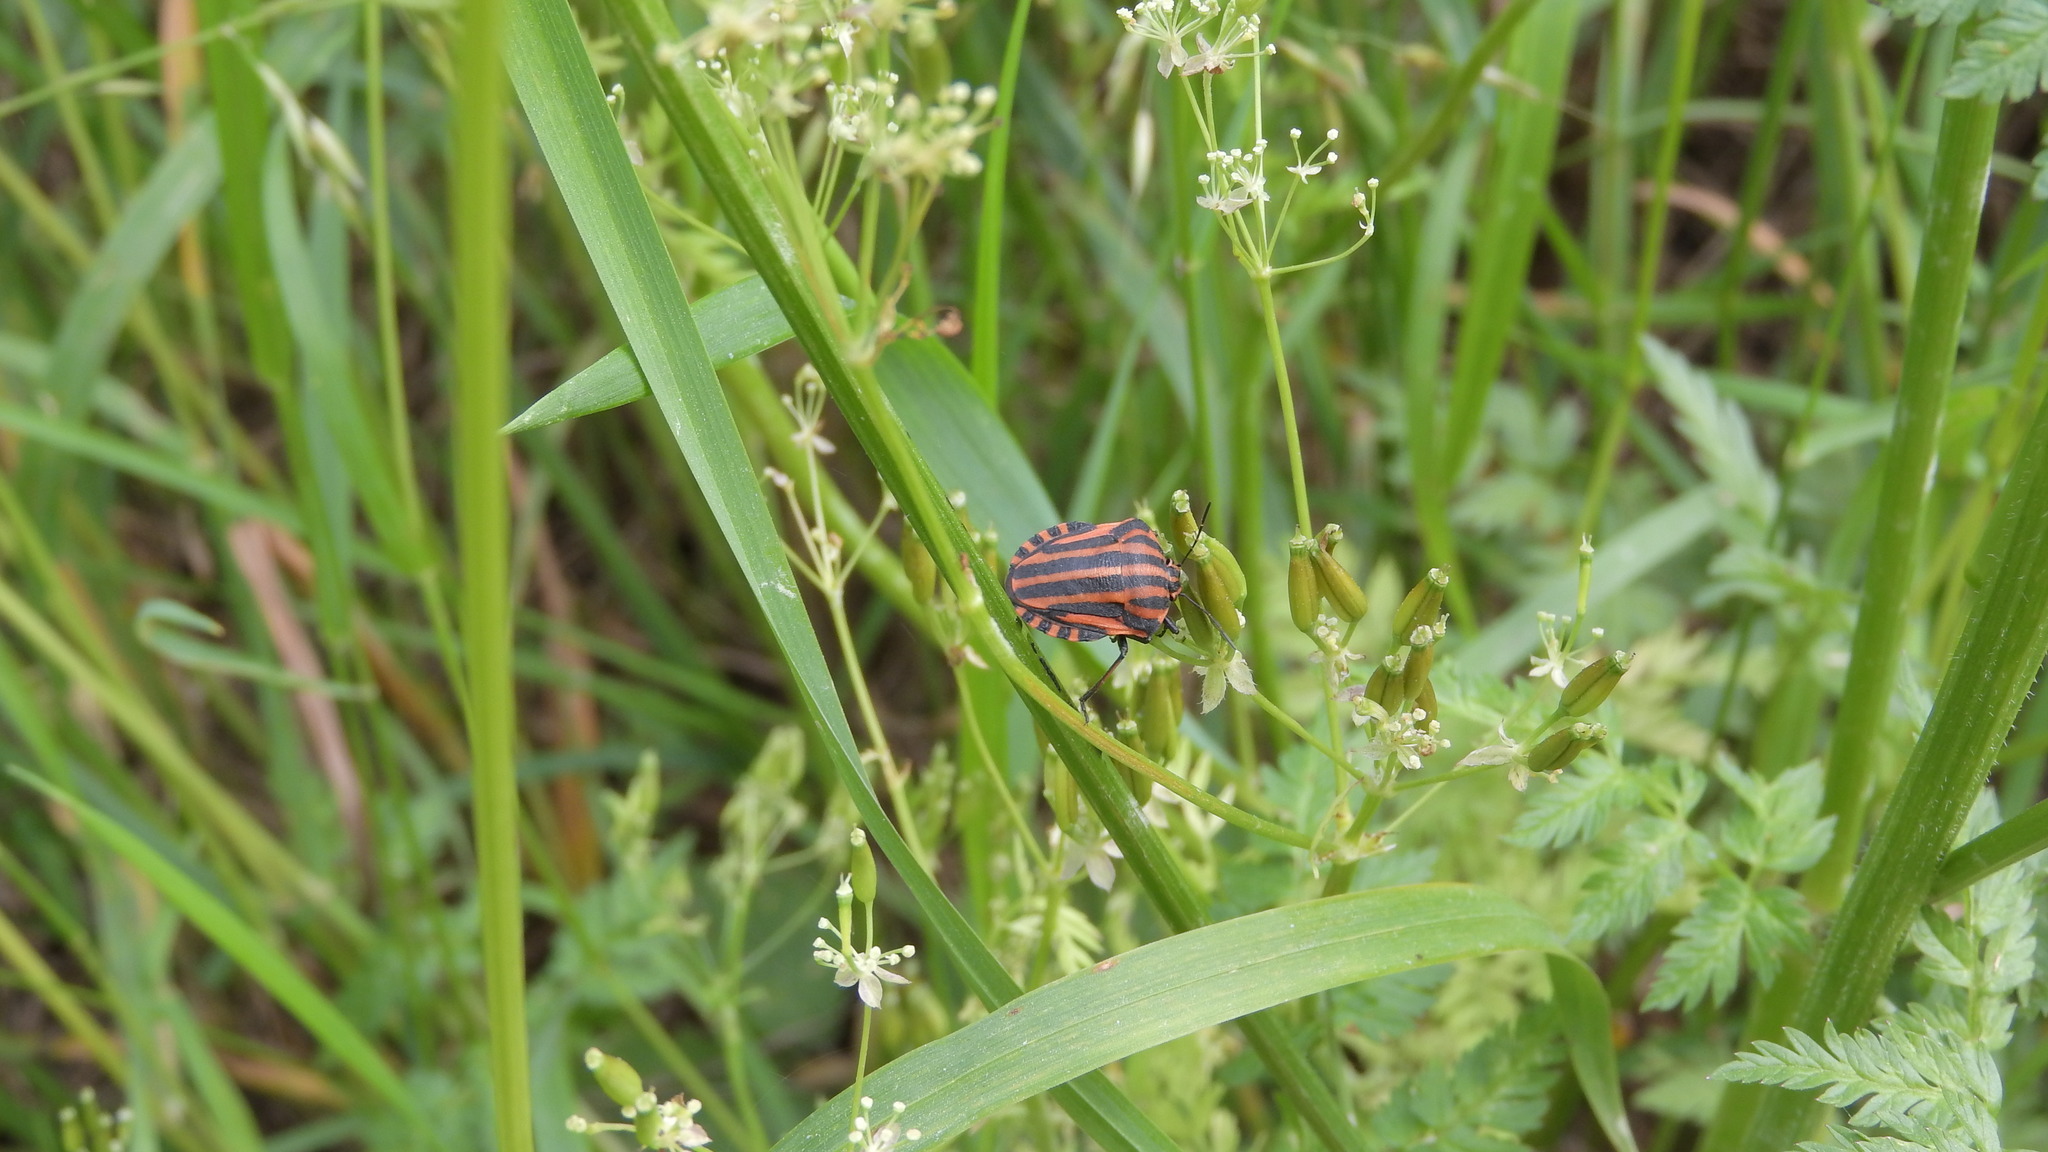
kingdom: Animalia
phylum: Arthropoda
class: Insecta
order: Hemiptera
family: Pentatomidae
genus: Graphosoma
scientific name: Graphosoma italicum
